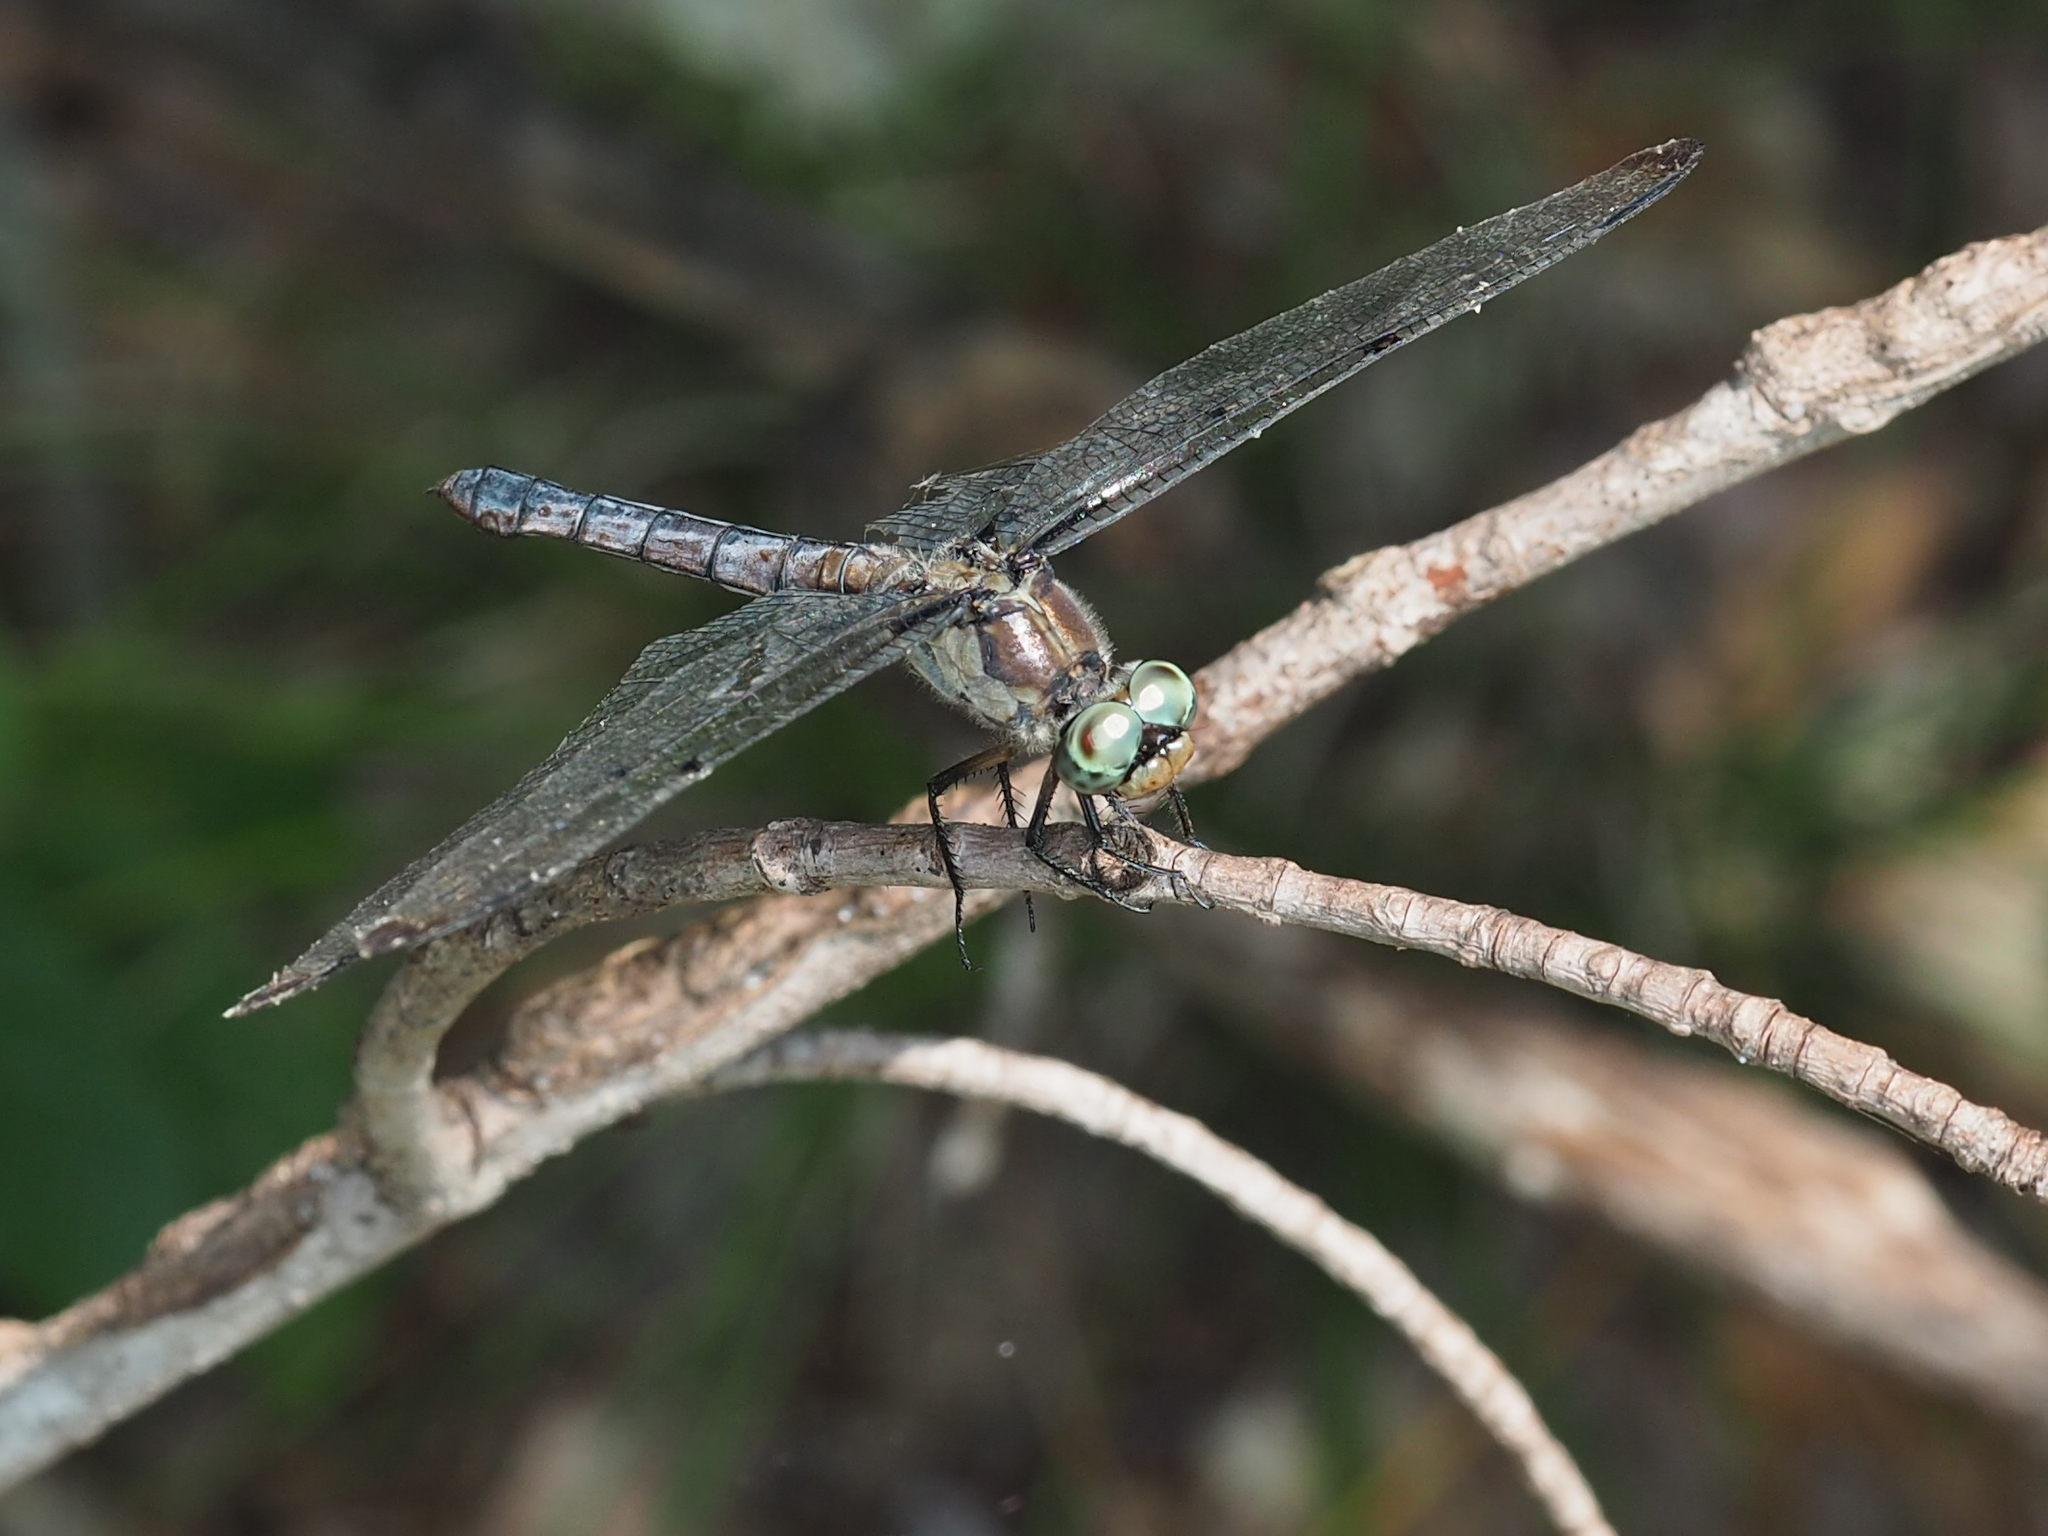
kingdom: Animalia
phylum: Arthropoda
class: Insecta
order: Odonata
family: Libellulidae
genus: Libellula
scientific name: Libellula vibrans
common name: Great blue skimmer
